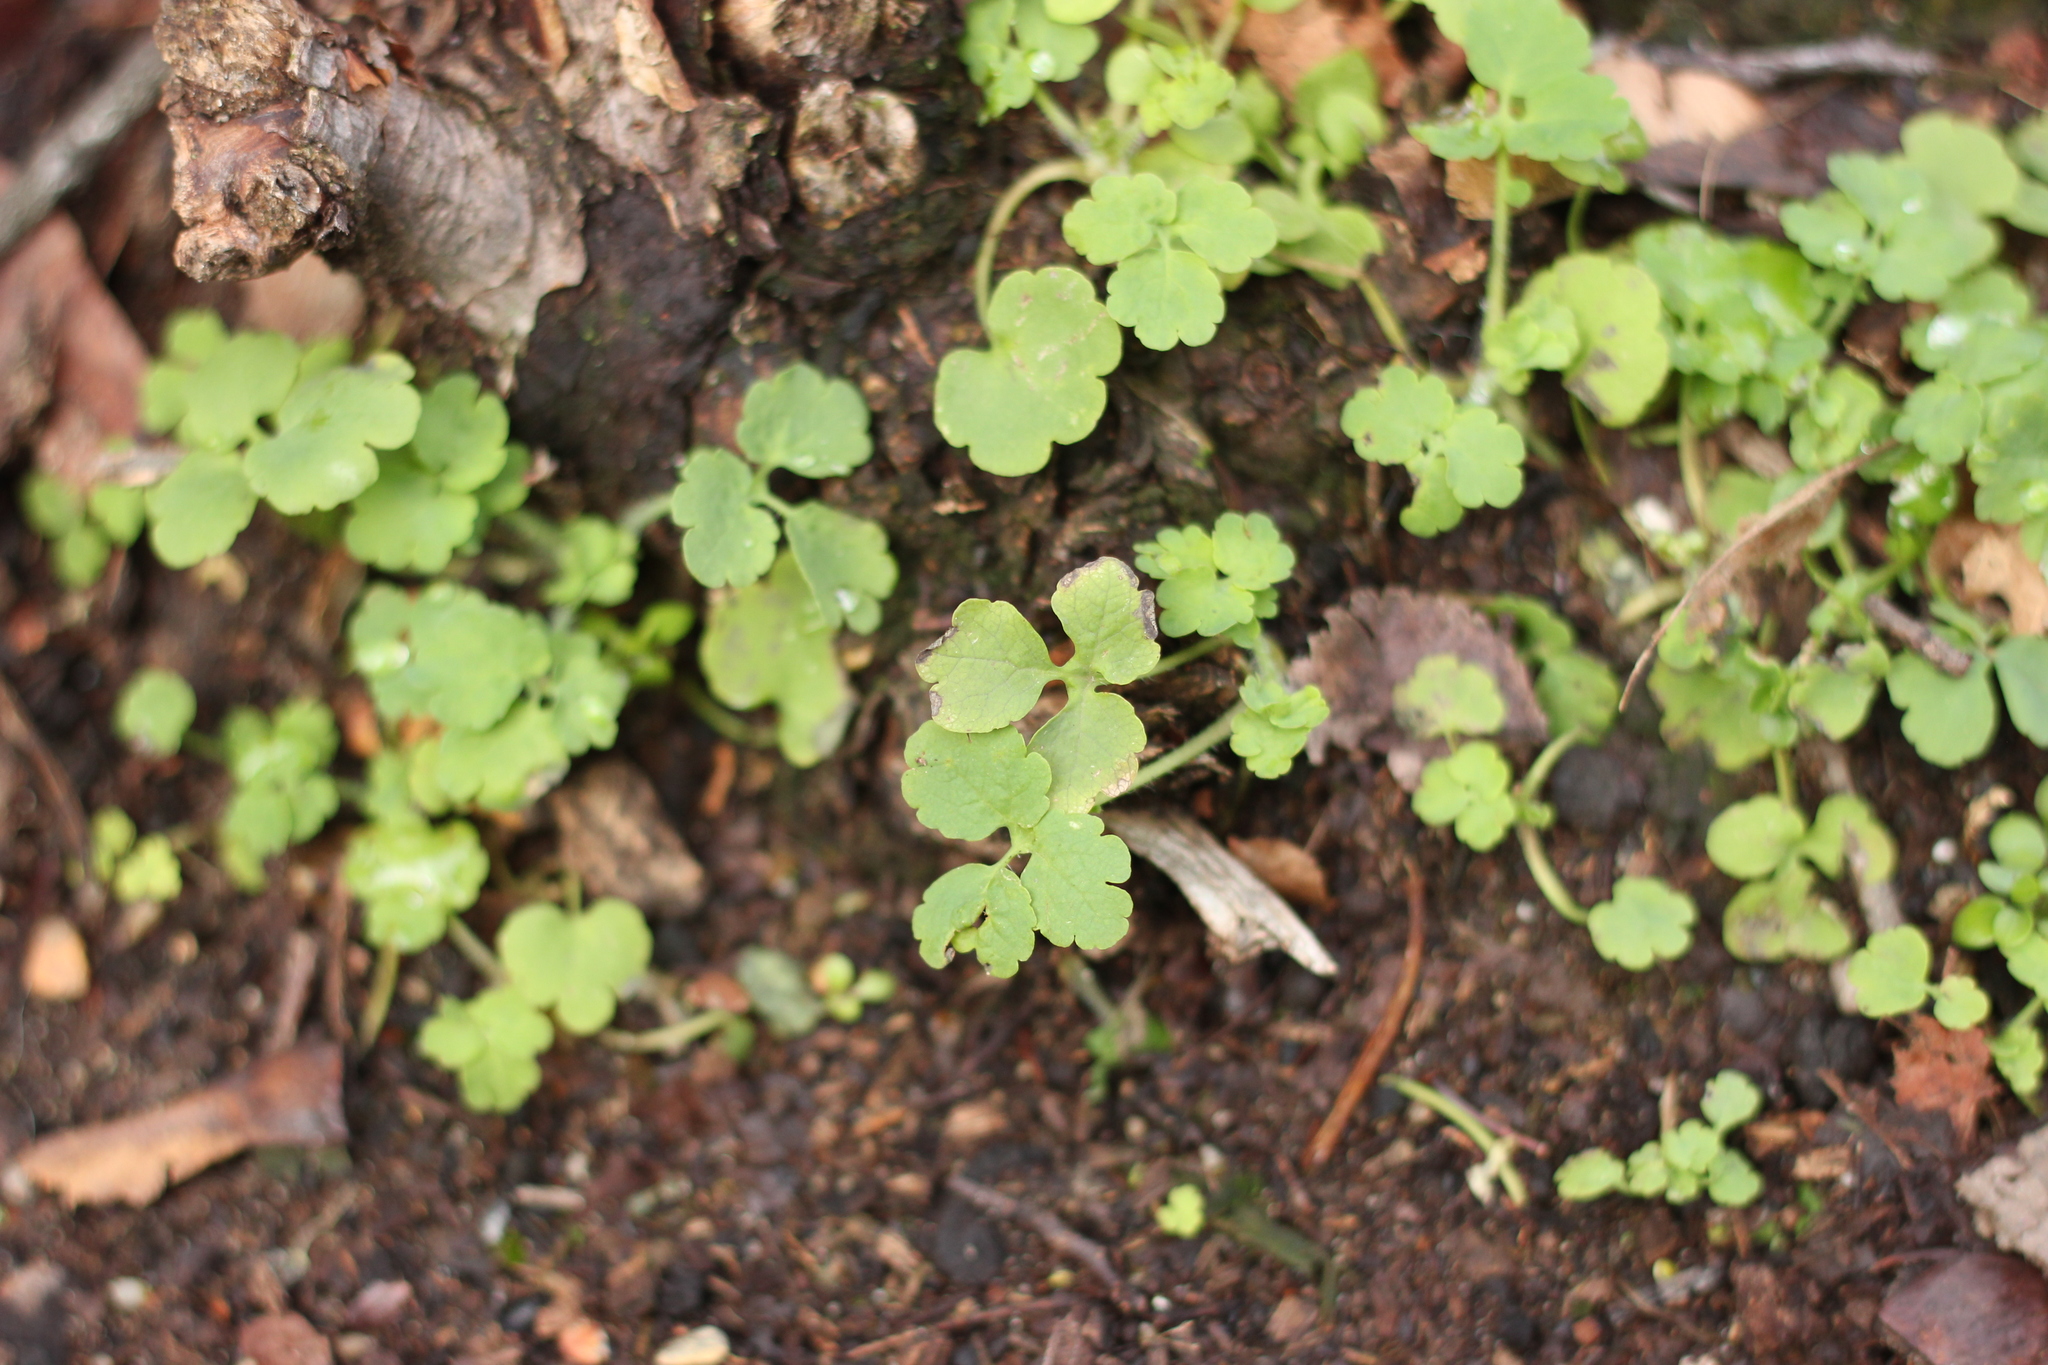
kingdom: Plantae
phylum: Tracheophyta
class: Magnoliopsida
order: Ranunculales
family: Papaveraceae
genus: Chelidonium
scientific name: Chelidonium majus
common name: Greater celandine
